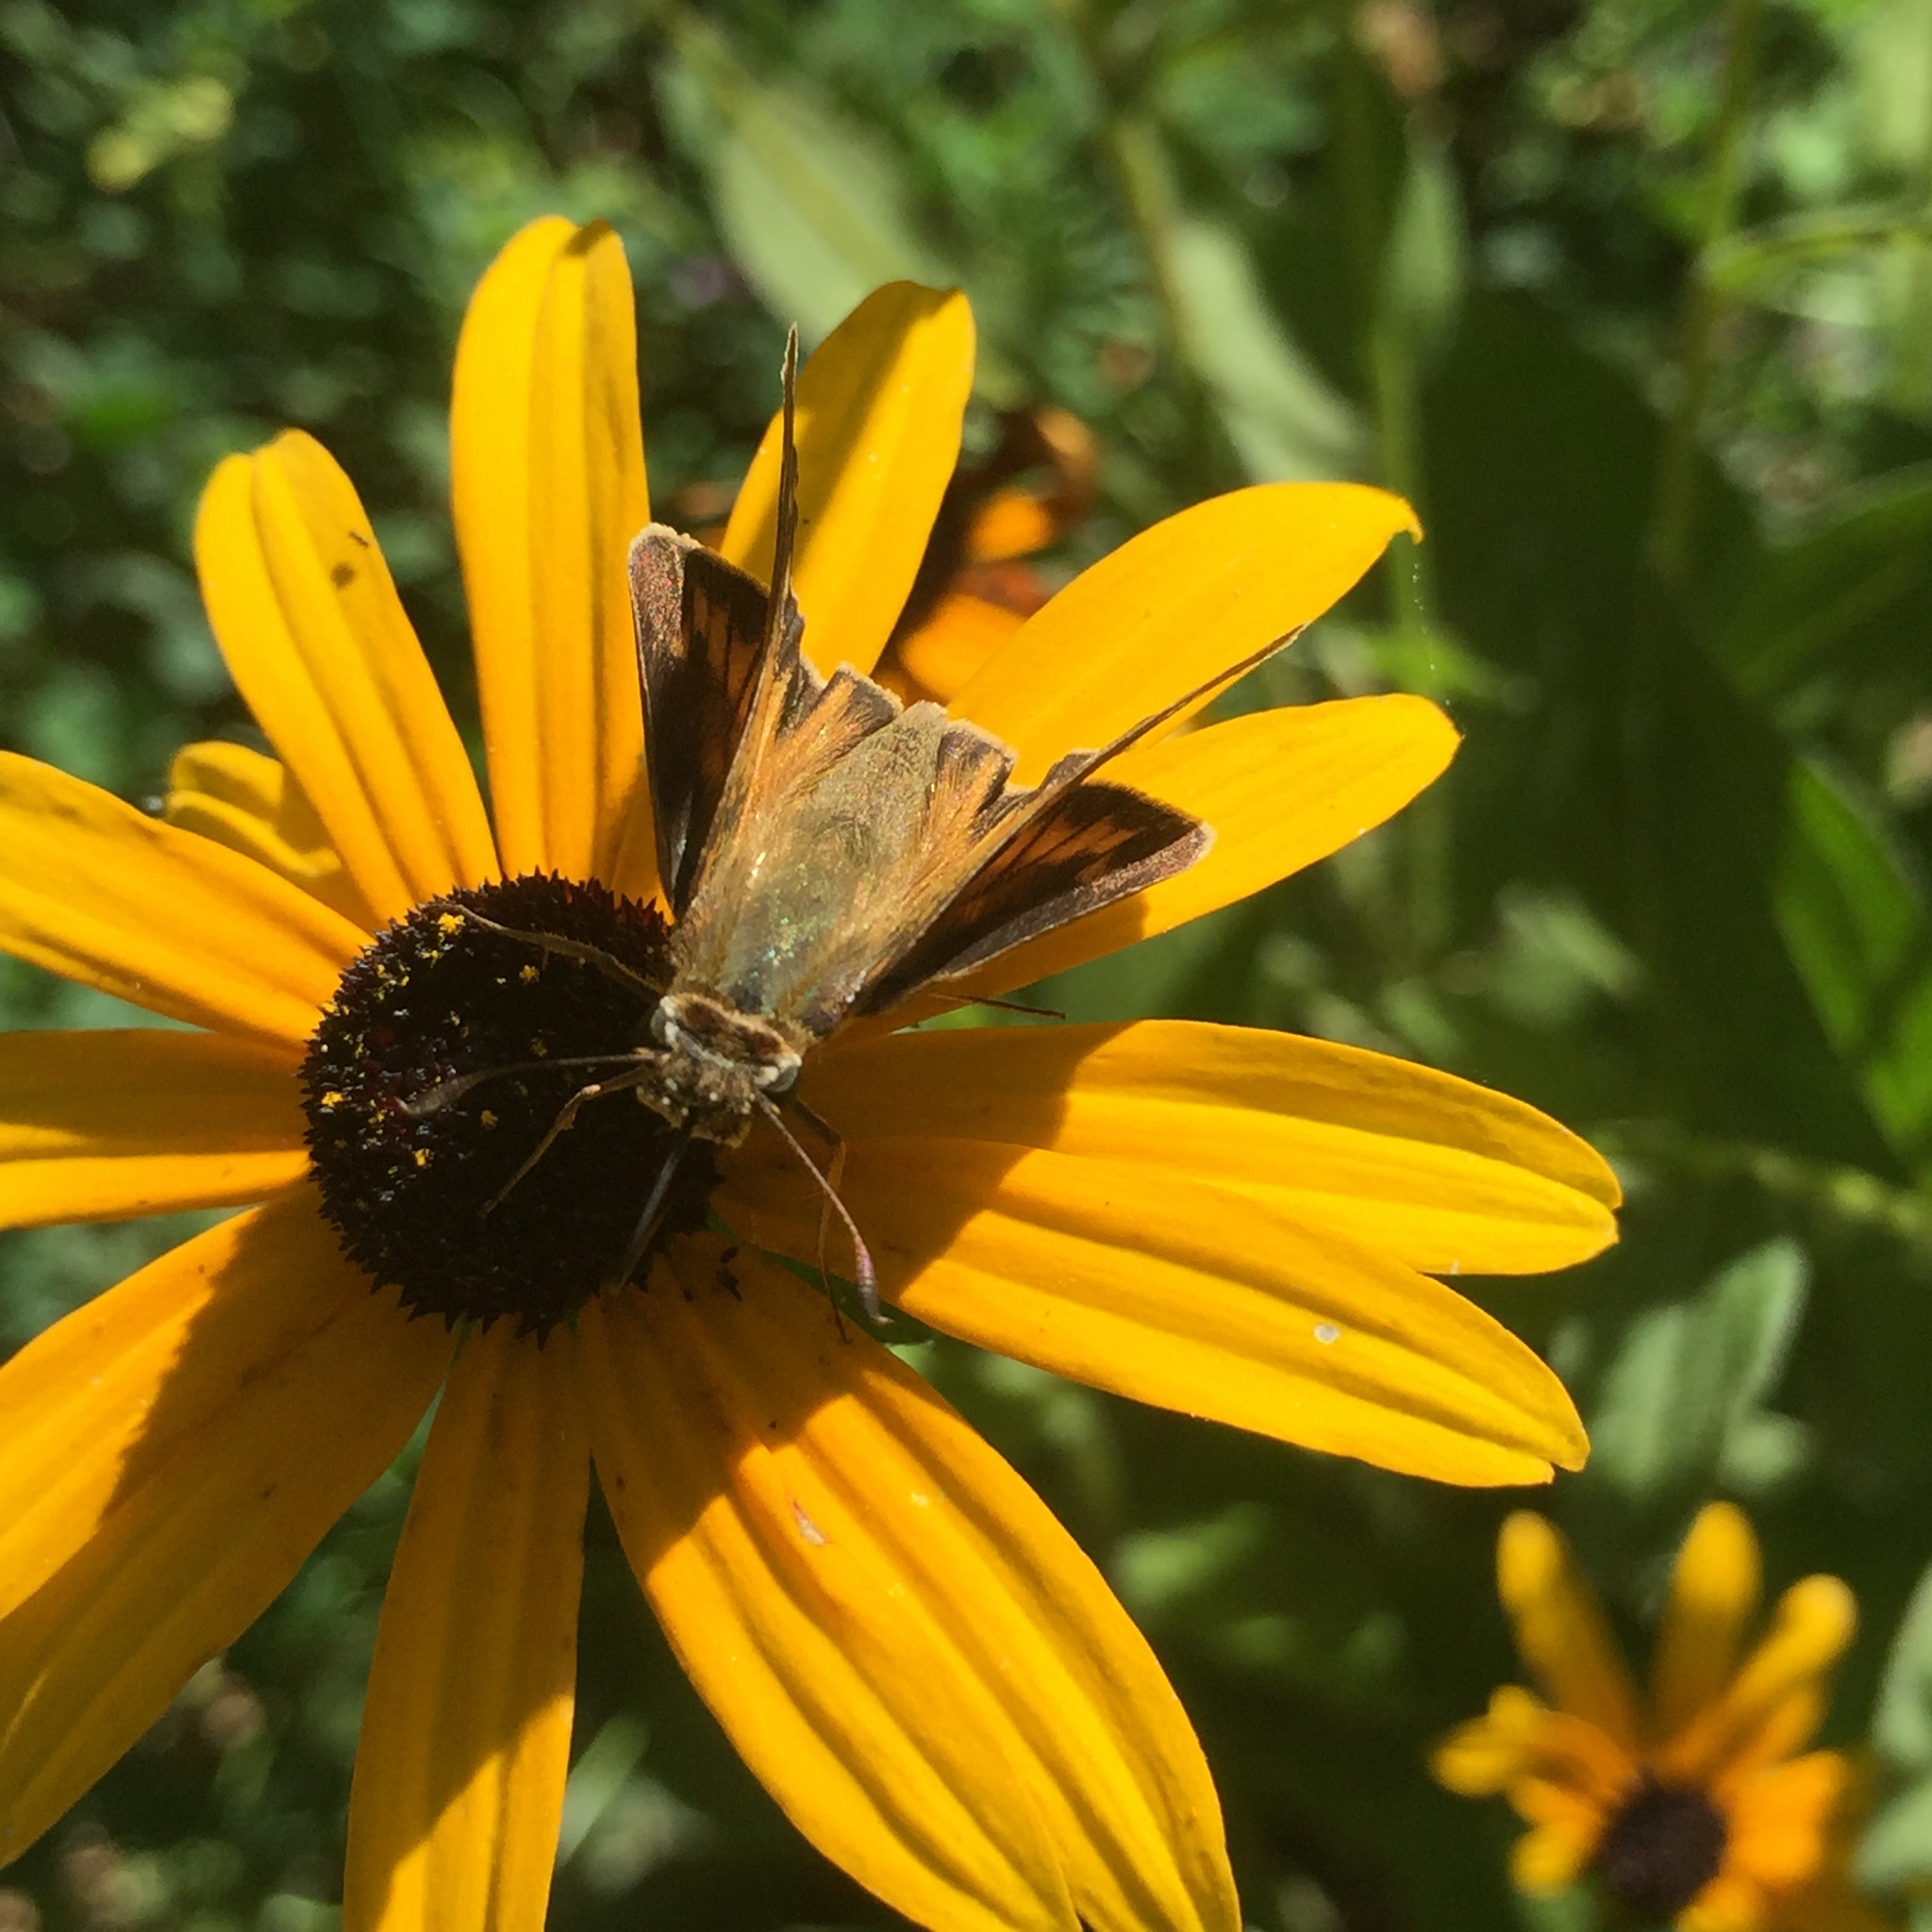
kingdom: Animalia
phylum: Arthropoda
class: Insecta
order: Lepidoptera
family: Hesperiidae
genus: Atalopedes
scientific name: Atalopedes
